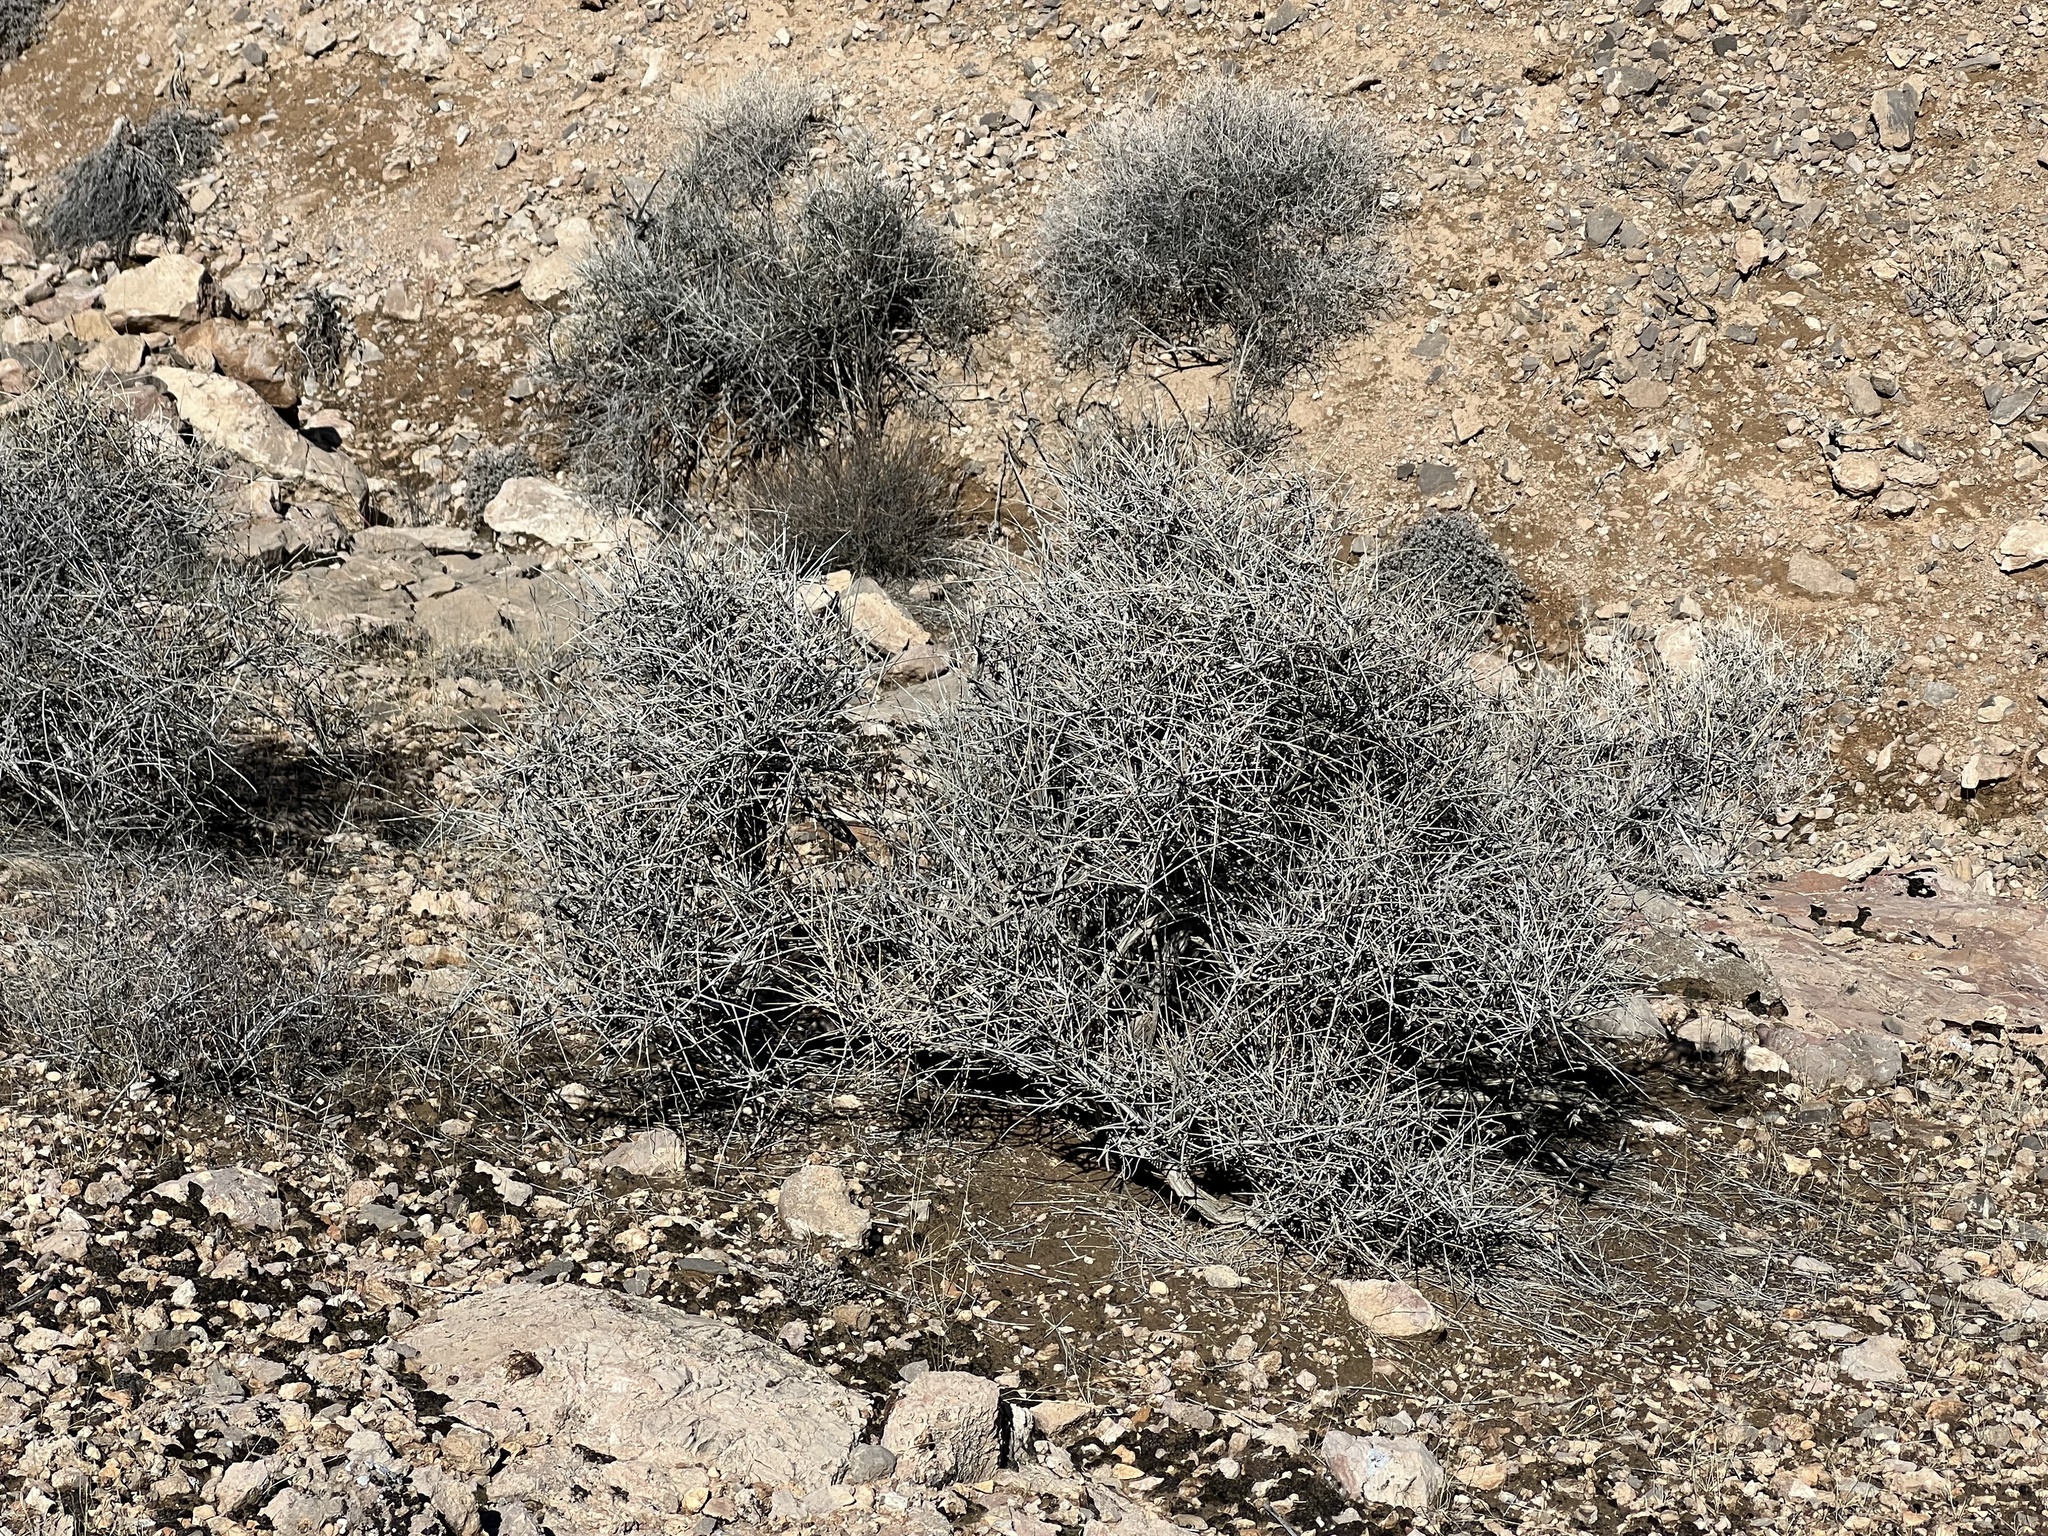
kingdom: Plantae
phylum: Tracheophyta
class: Gnetopsida
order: Ephedrales
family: Ephedraceae
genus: Ephedra
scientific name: Ephedra nevadensis
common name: Gray ephedra
